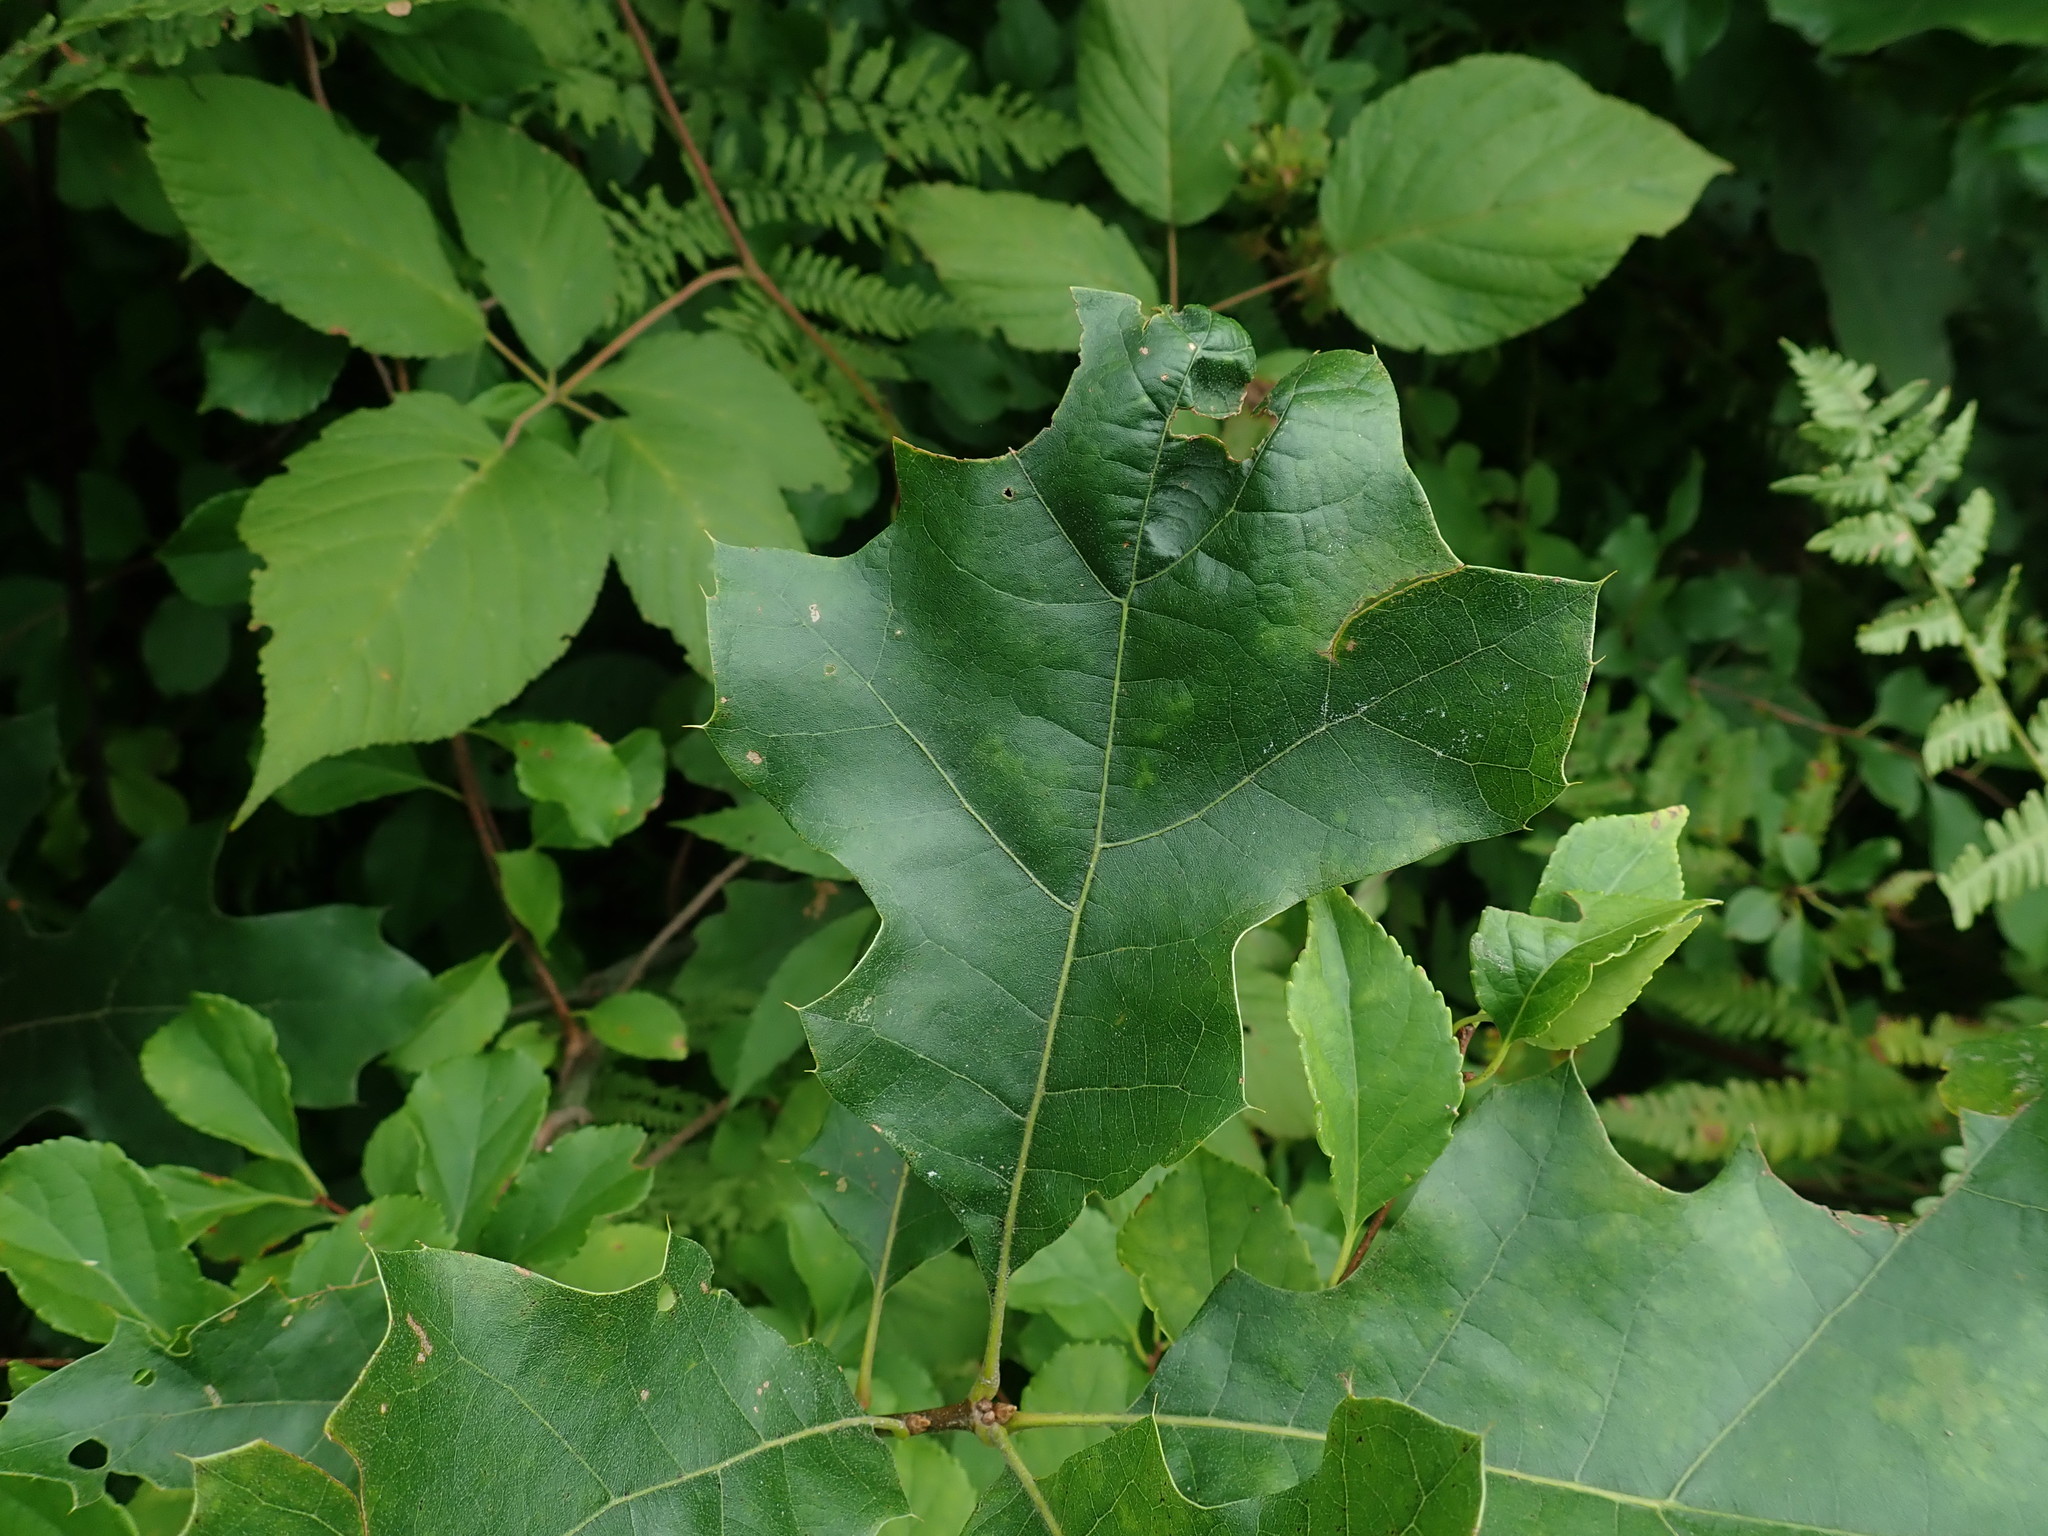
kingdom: Plantae
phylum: Tracheophyta
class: Magnoliopsida
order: Fagales
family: Fagaceae
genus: Quercus
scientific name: Quercus velutina
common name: Black oak
